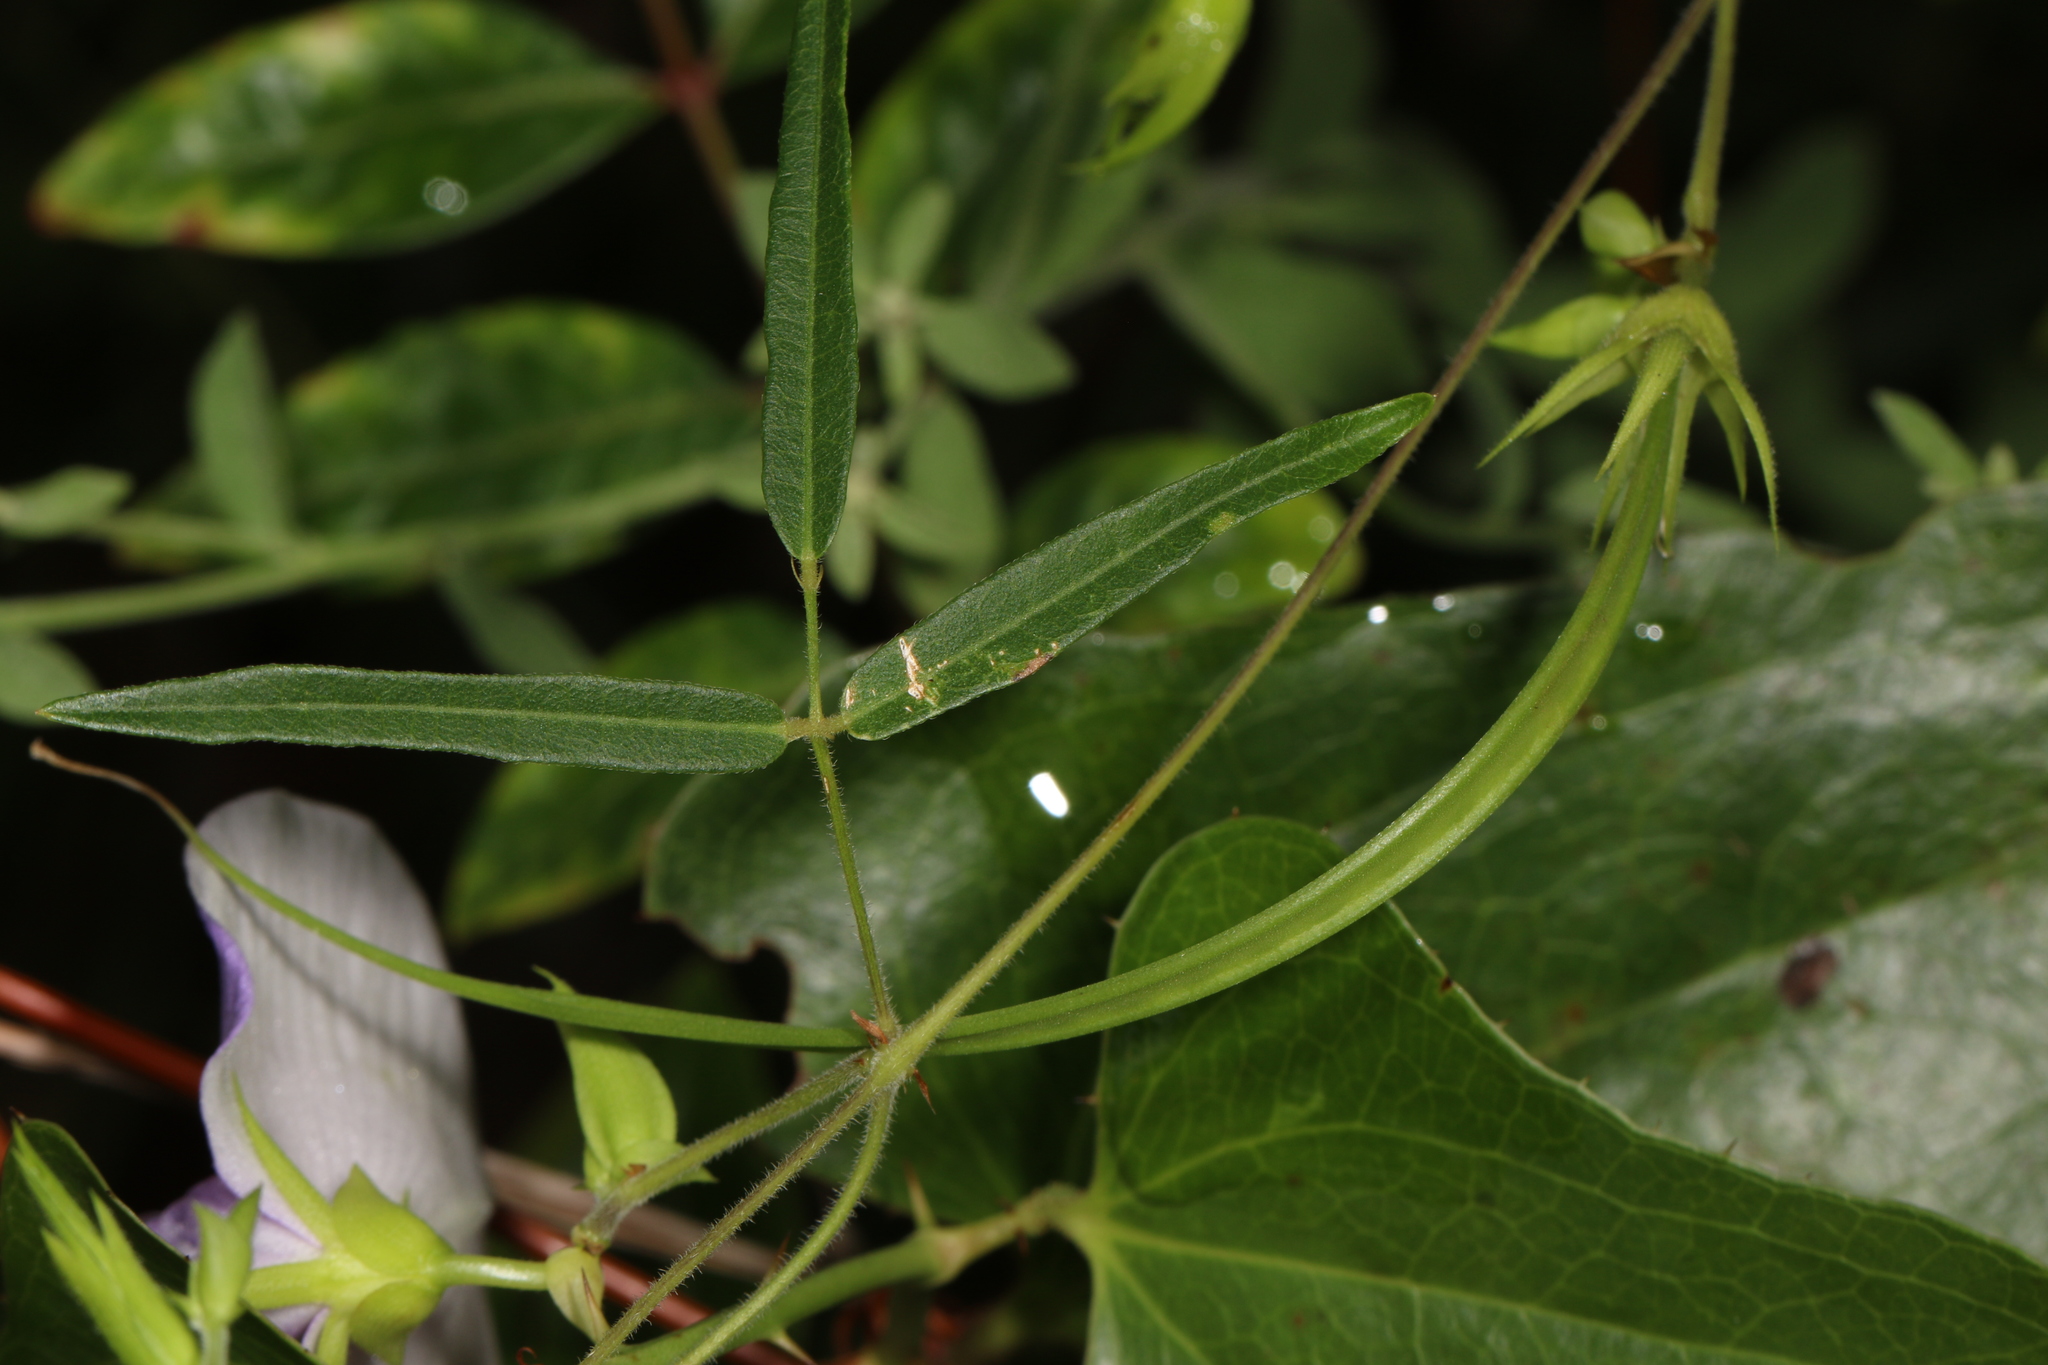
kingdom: Plantae
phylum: Tracheophyta
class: Magnoliopsida
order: Fabales
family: Fabaceae
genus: Centrosema
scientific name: Centrosema virginianum
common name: Butterfly-pea
